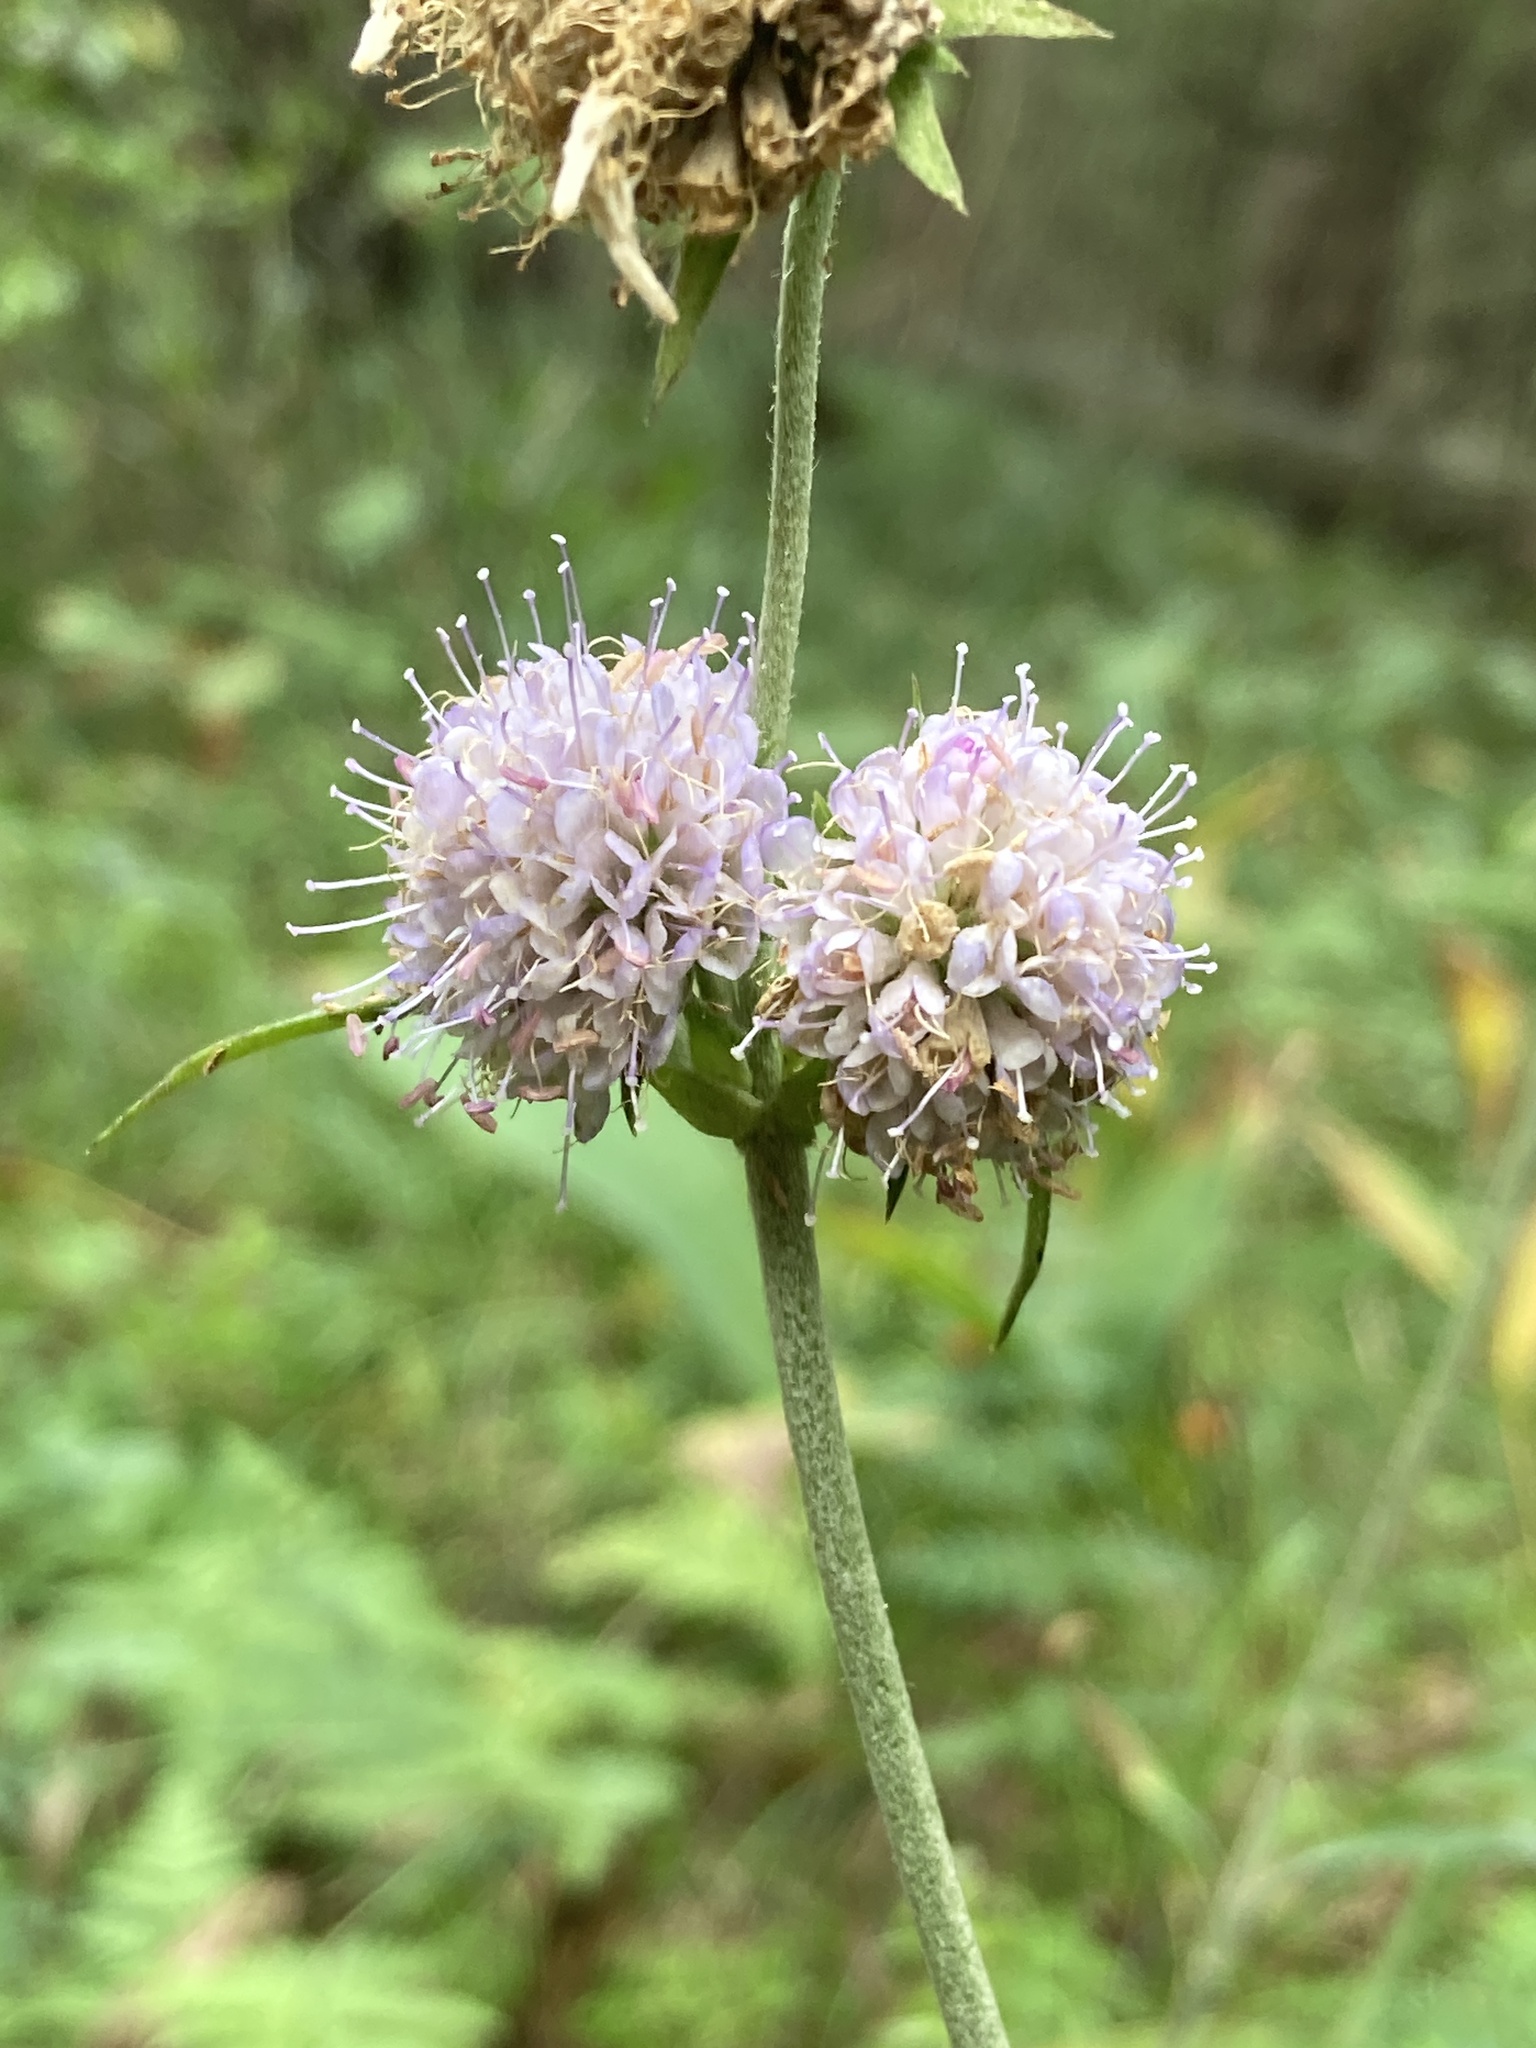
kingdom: Plantae
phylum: Tracheophyta
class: Magnoliopsida
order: Dipsacales
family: Caprifoliaceae
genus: Succisa
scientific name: Succisa pratensis
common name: Devil's-bit
